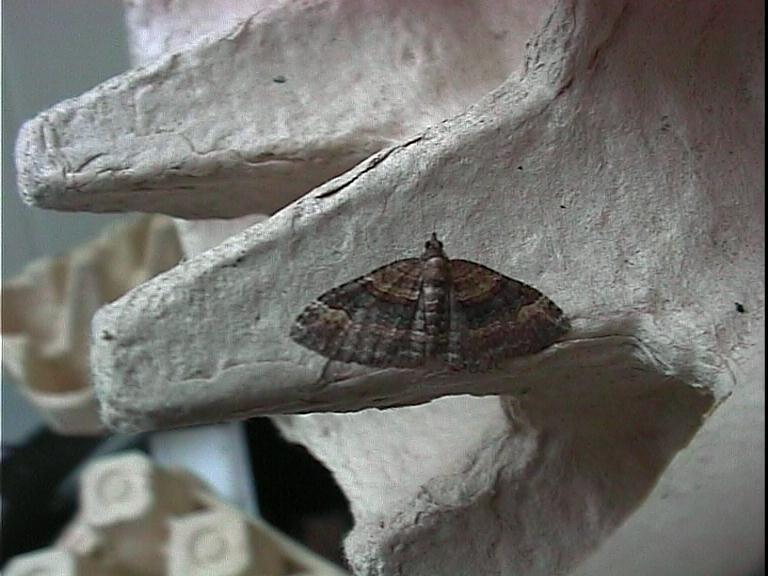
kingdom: Animalia
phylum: Arthropoda
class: Insecta
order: Lepidoptera
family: Geometridae
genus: Epyaxa
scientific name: Epyaxa lucidata
